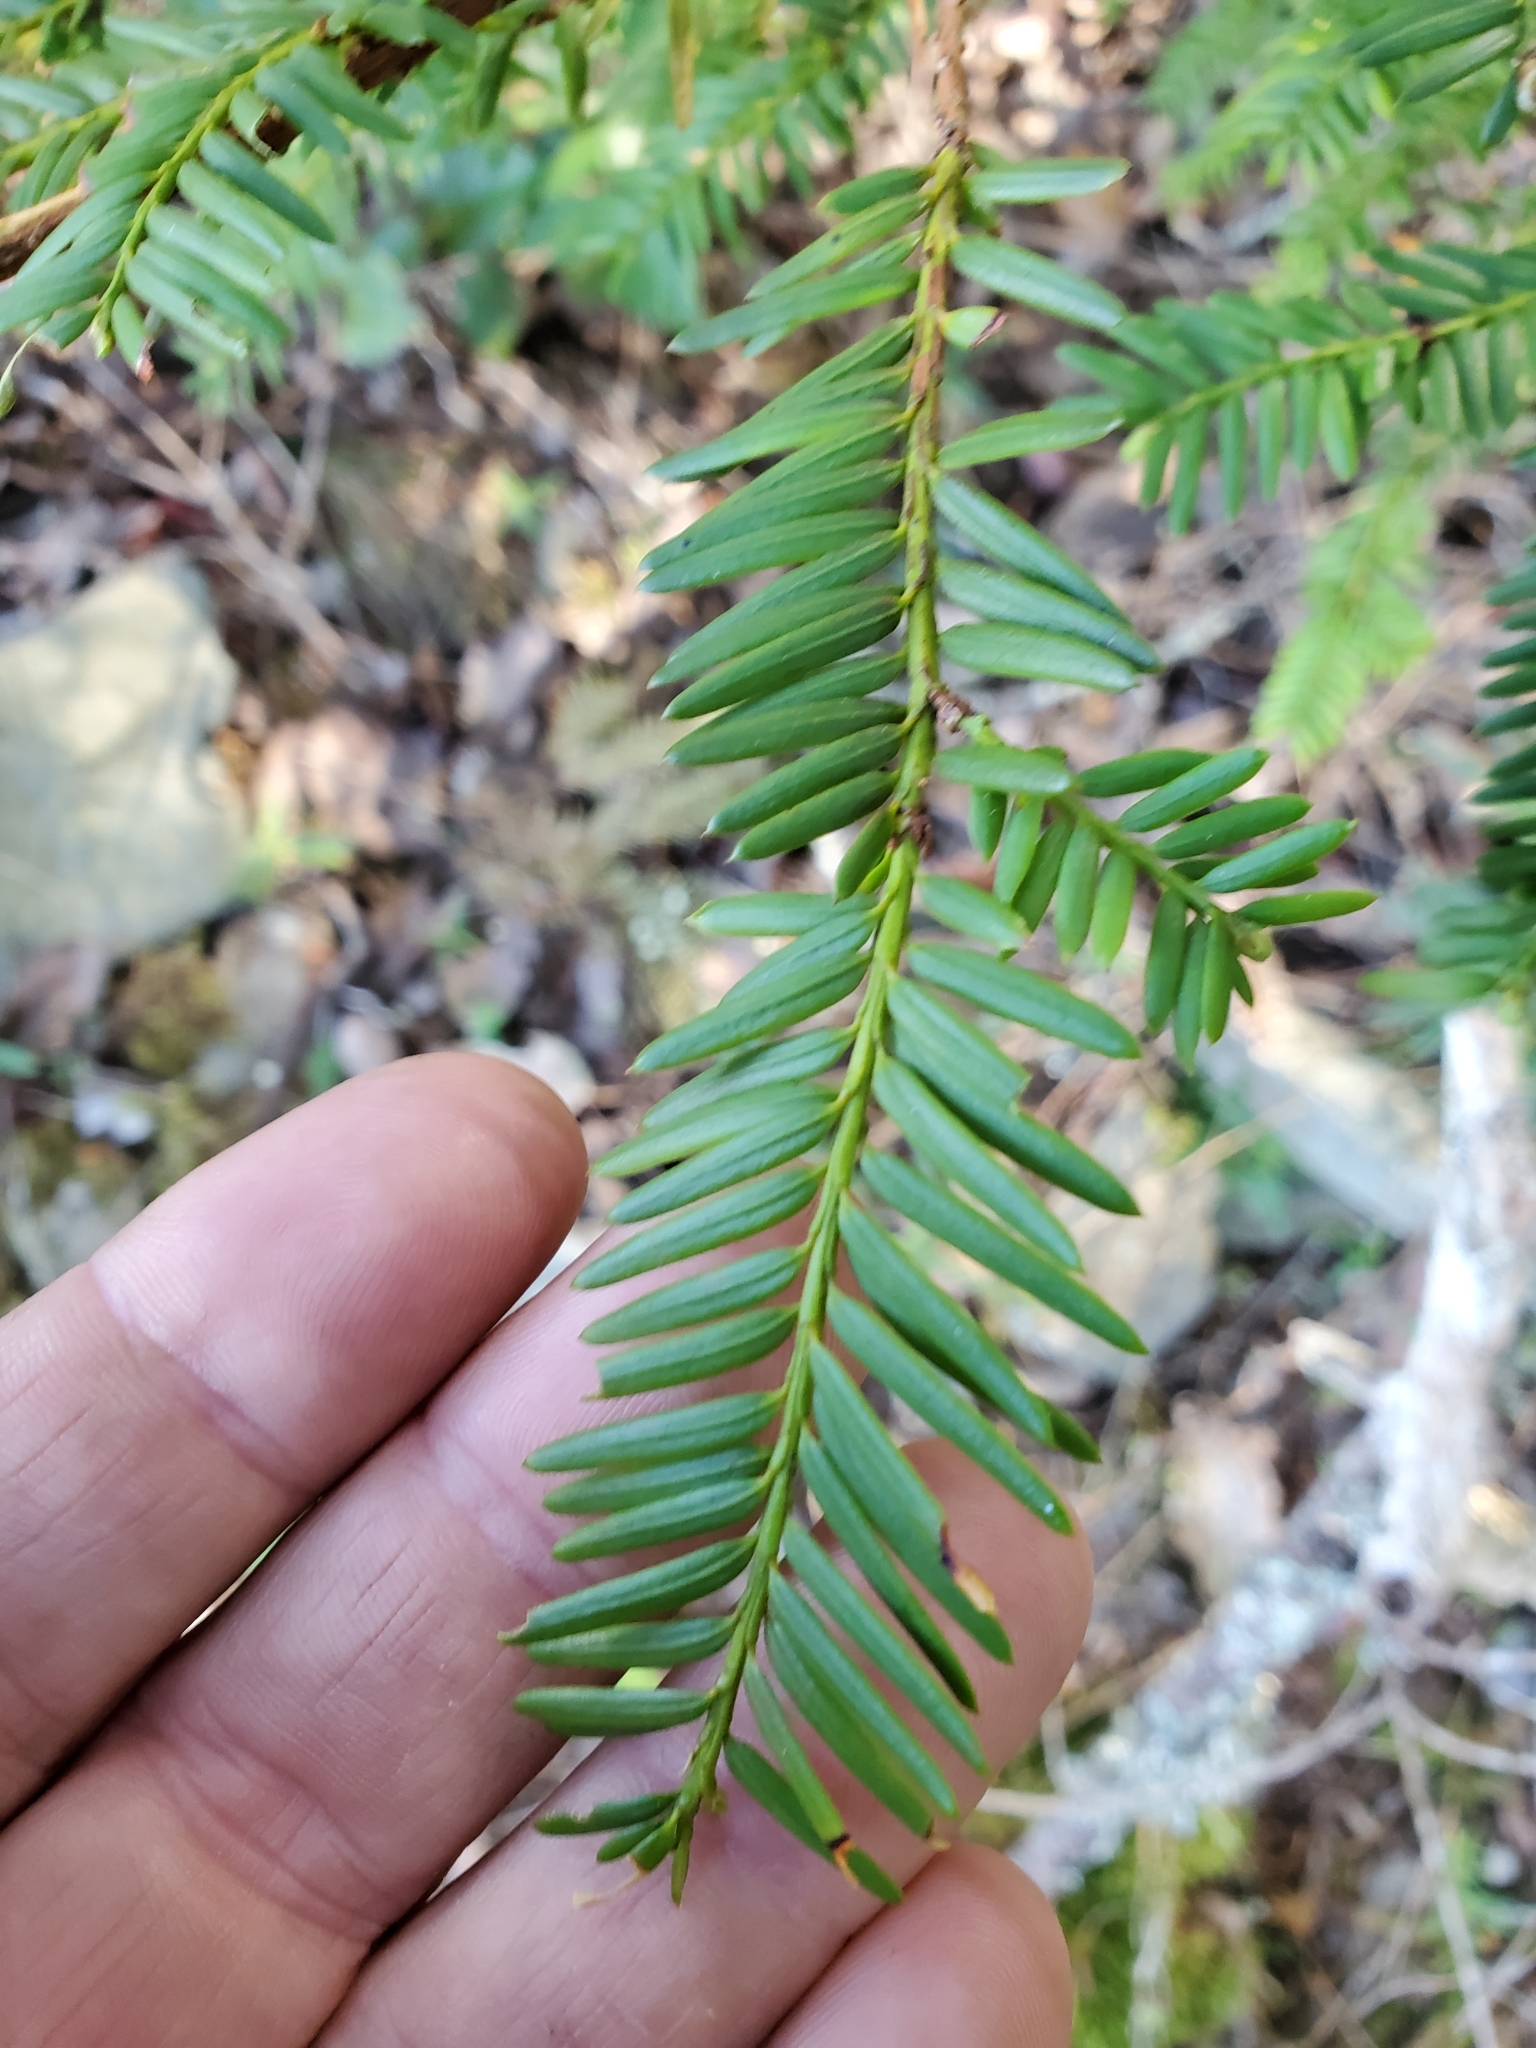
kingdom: Plantae
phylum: Tracheophyta
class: Pinopsida
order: Pinales
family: Taxaceae
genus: Taxus
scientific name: Taxus brevifolia
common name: Pacific yew
